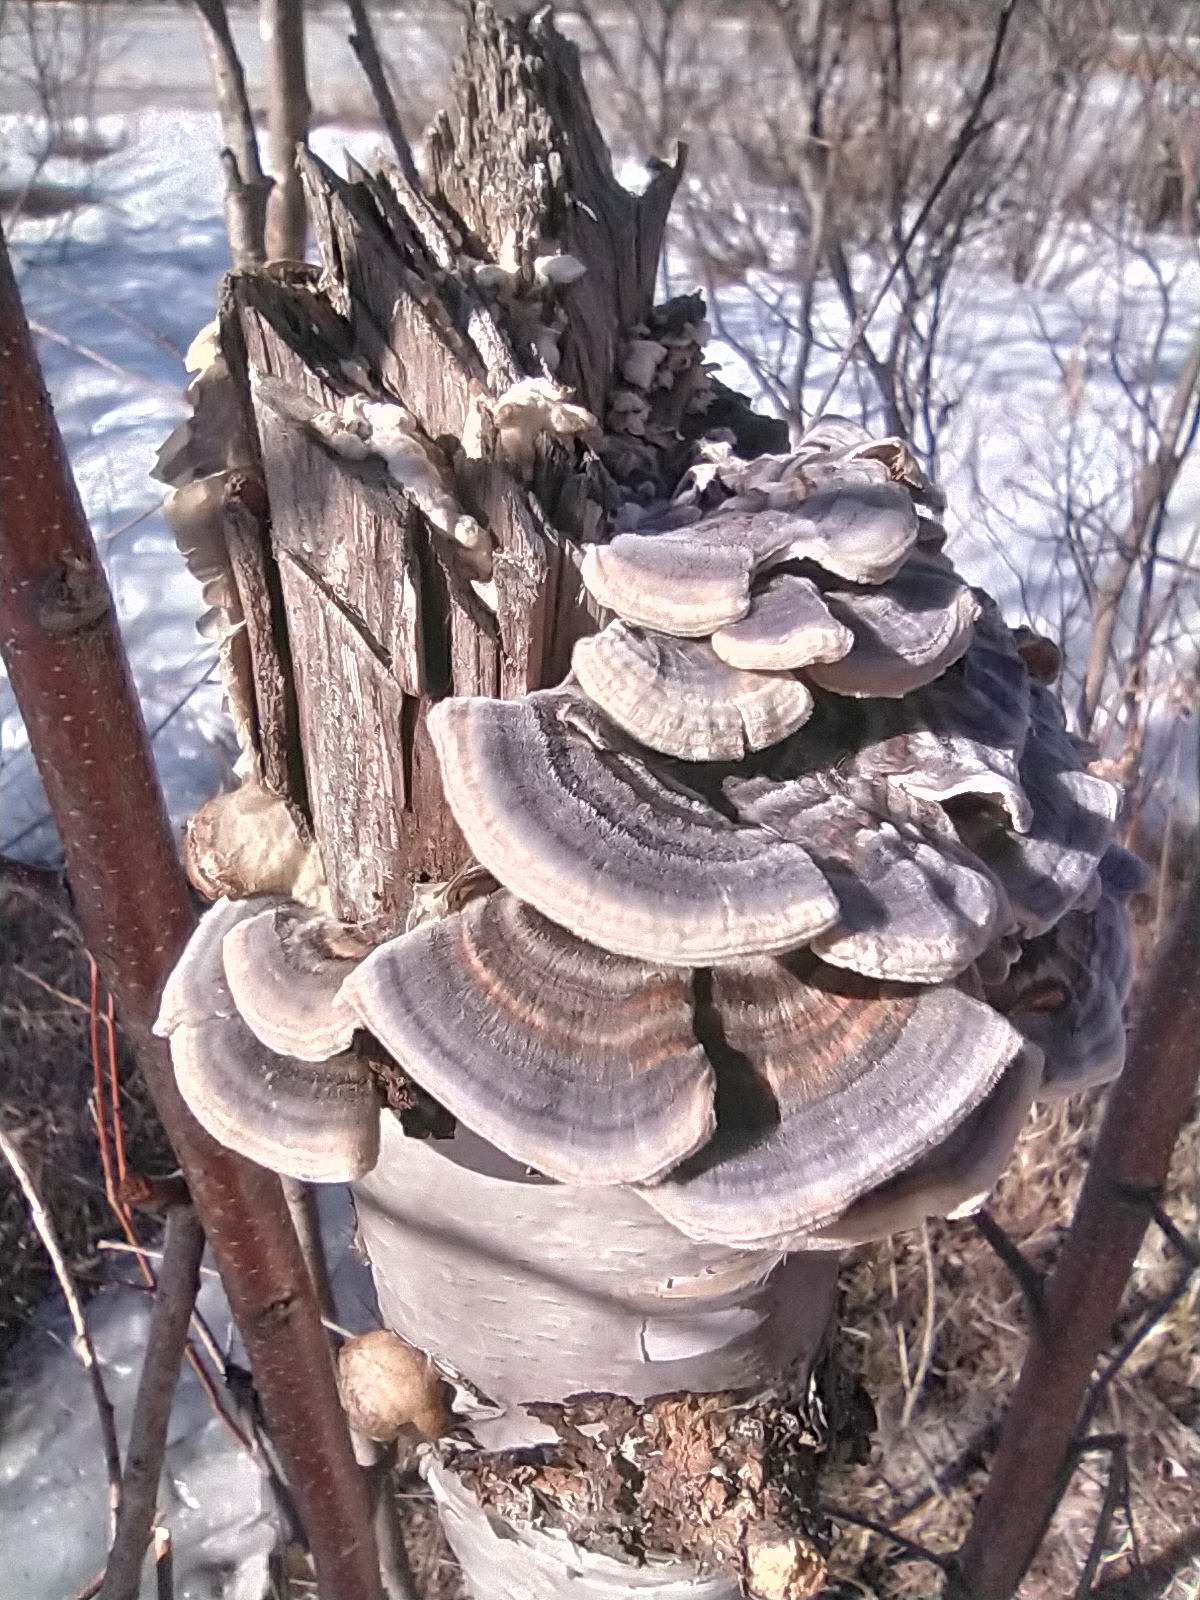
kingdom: Fungi
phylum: Basidiomycota
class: Agaricomycetes
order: Polyporales
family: Polyporaceae
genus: Trametes
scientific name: Trametes versicolor
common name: Turkeytail
